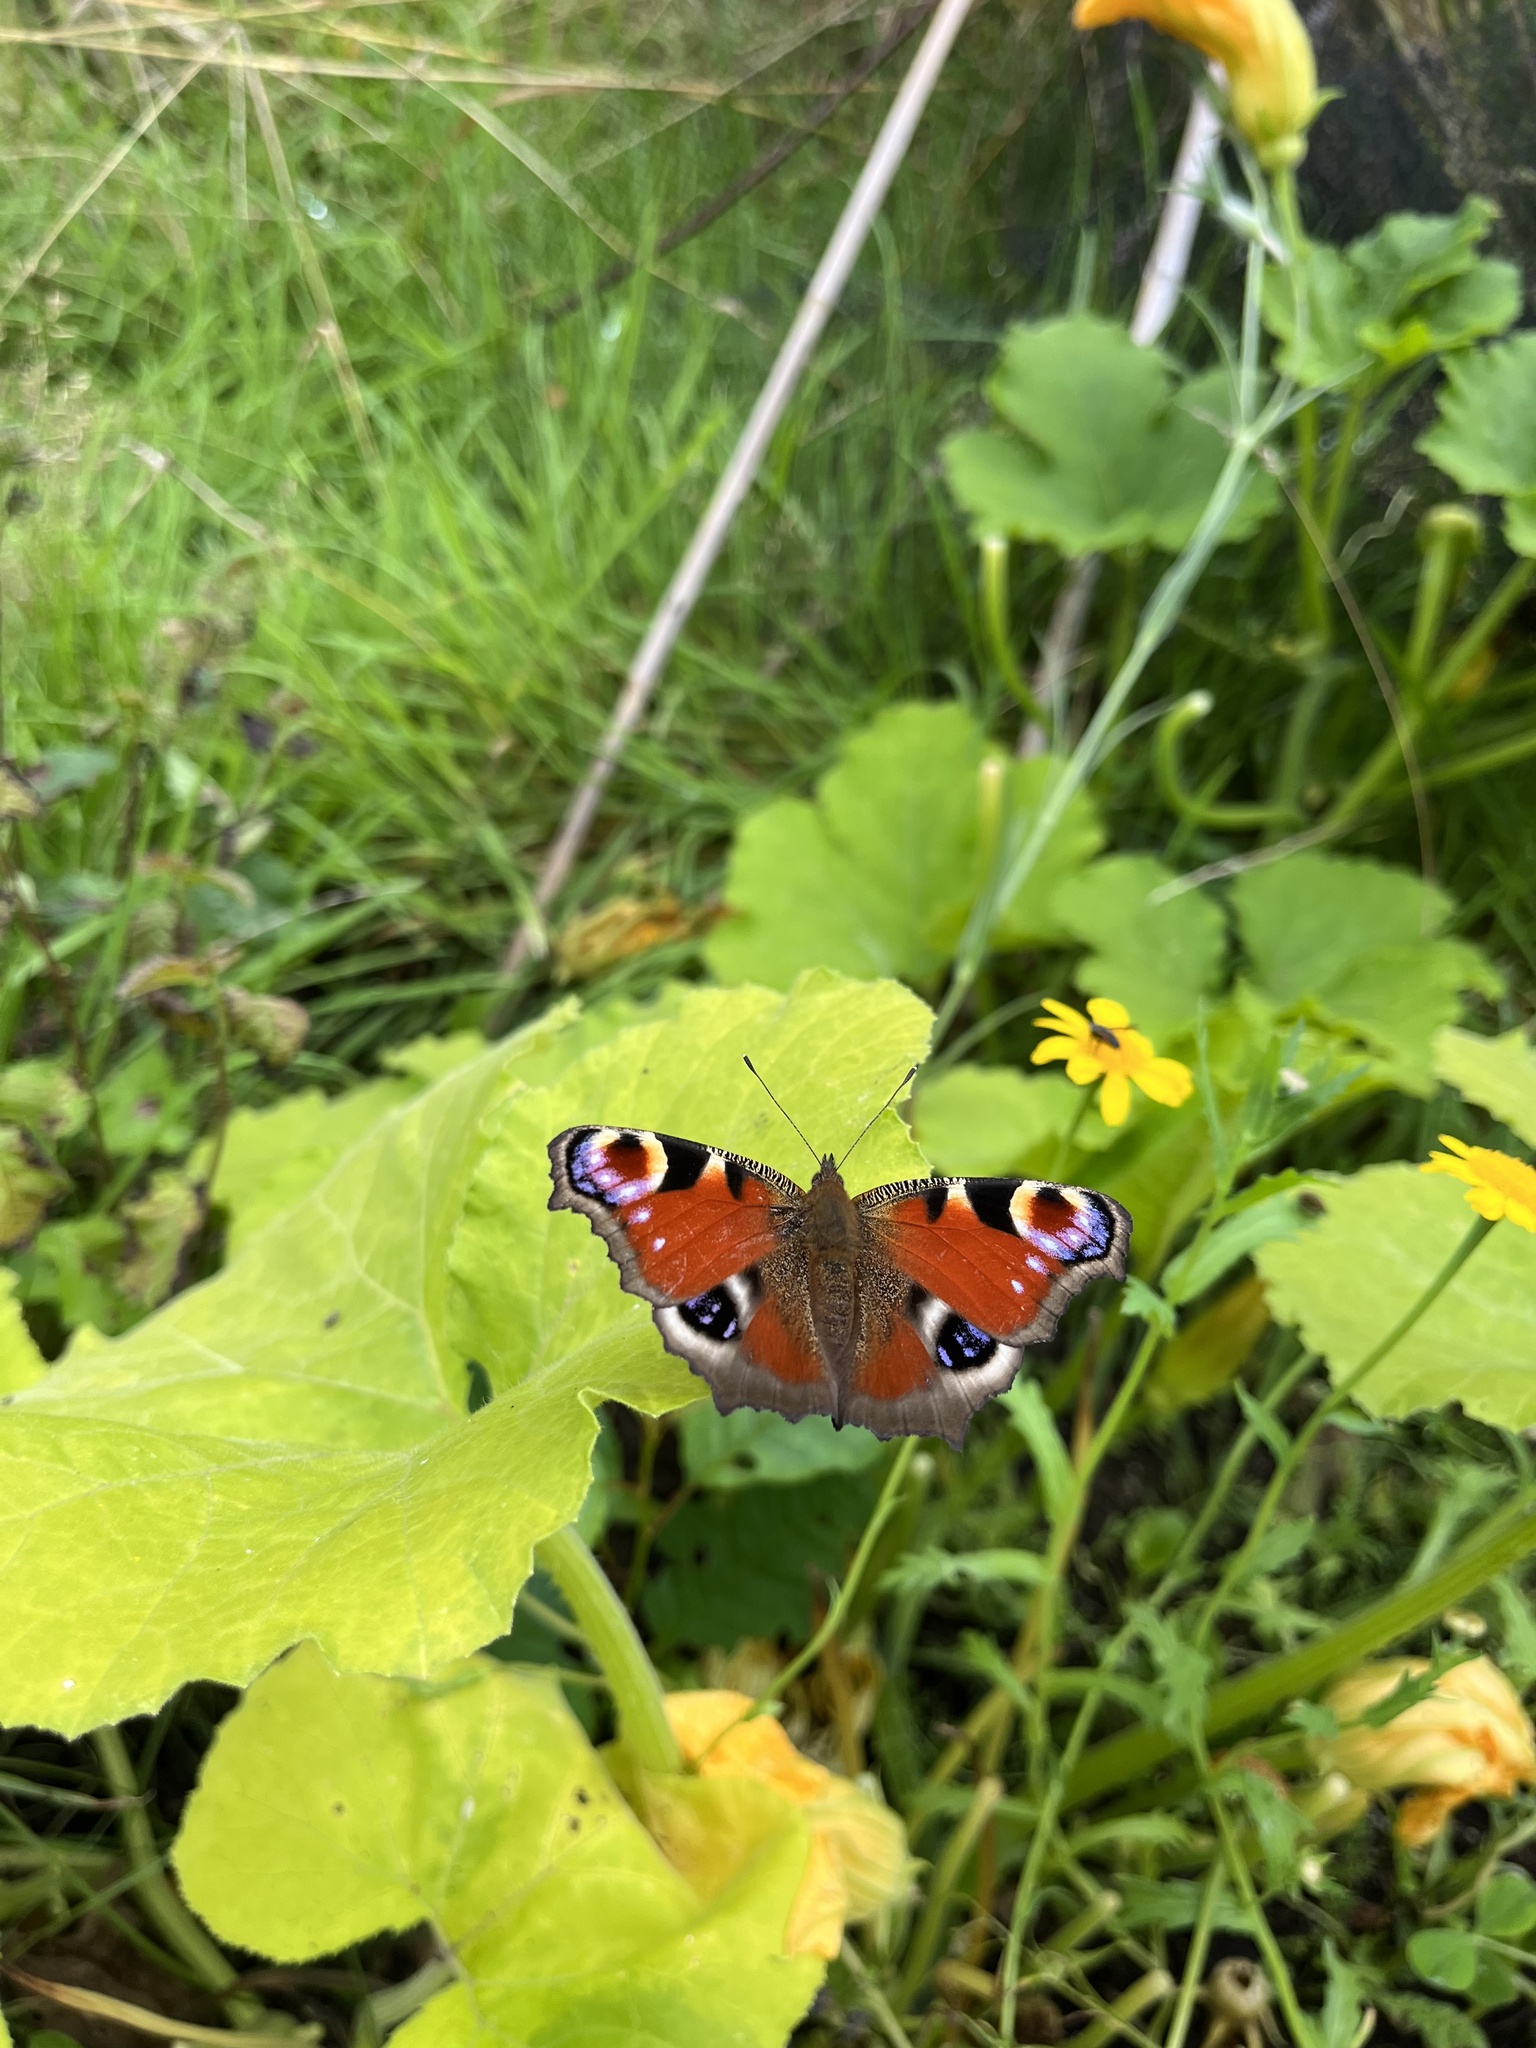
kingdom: Animalia
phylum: Arthropoda
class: Insecta
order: Lepidoptera
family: Nymphalidae
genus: Aglais
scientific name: Aglais io
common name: Peacock
